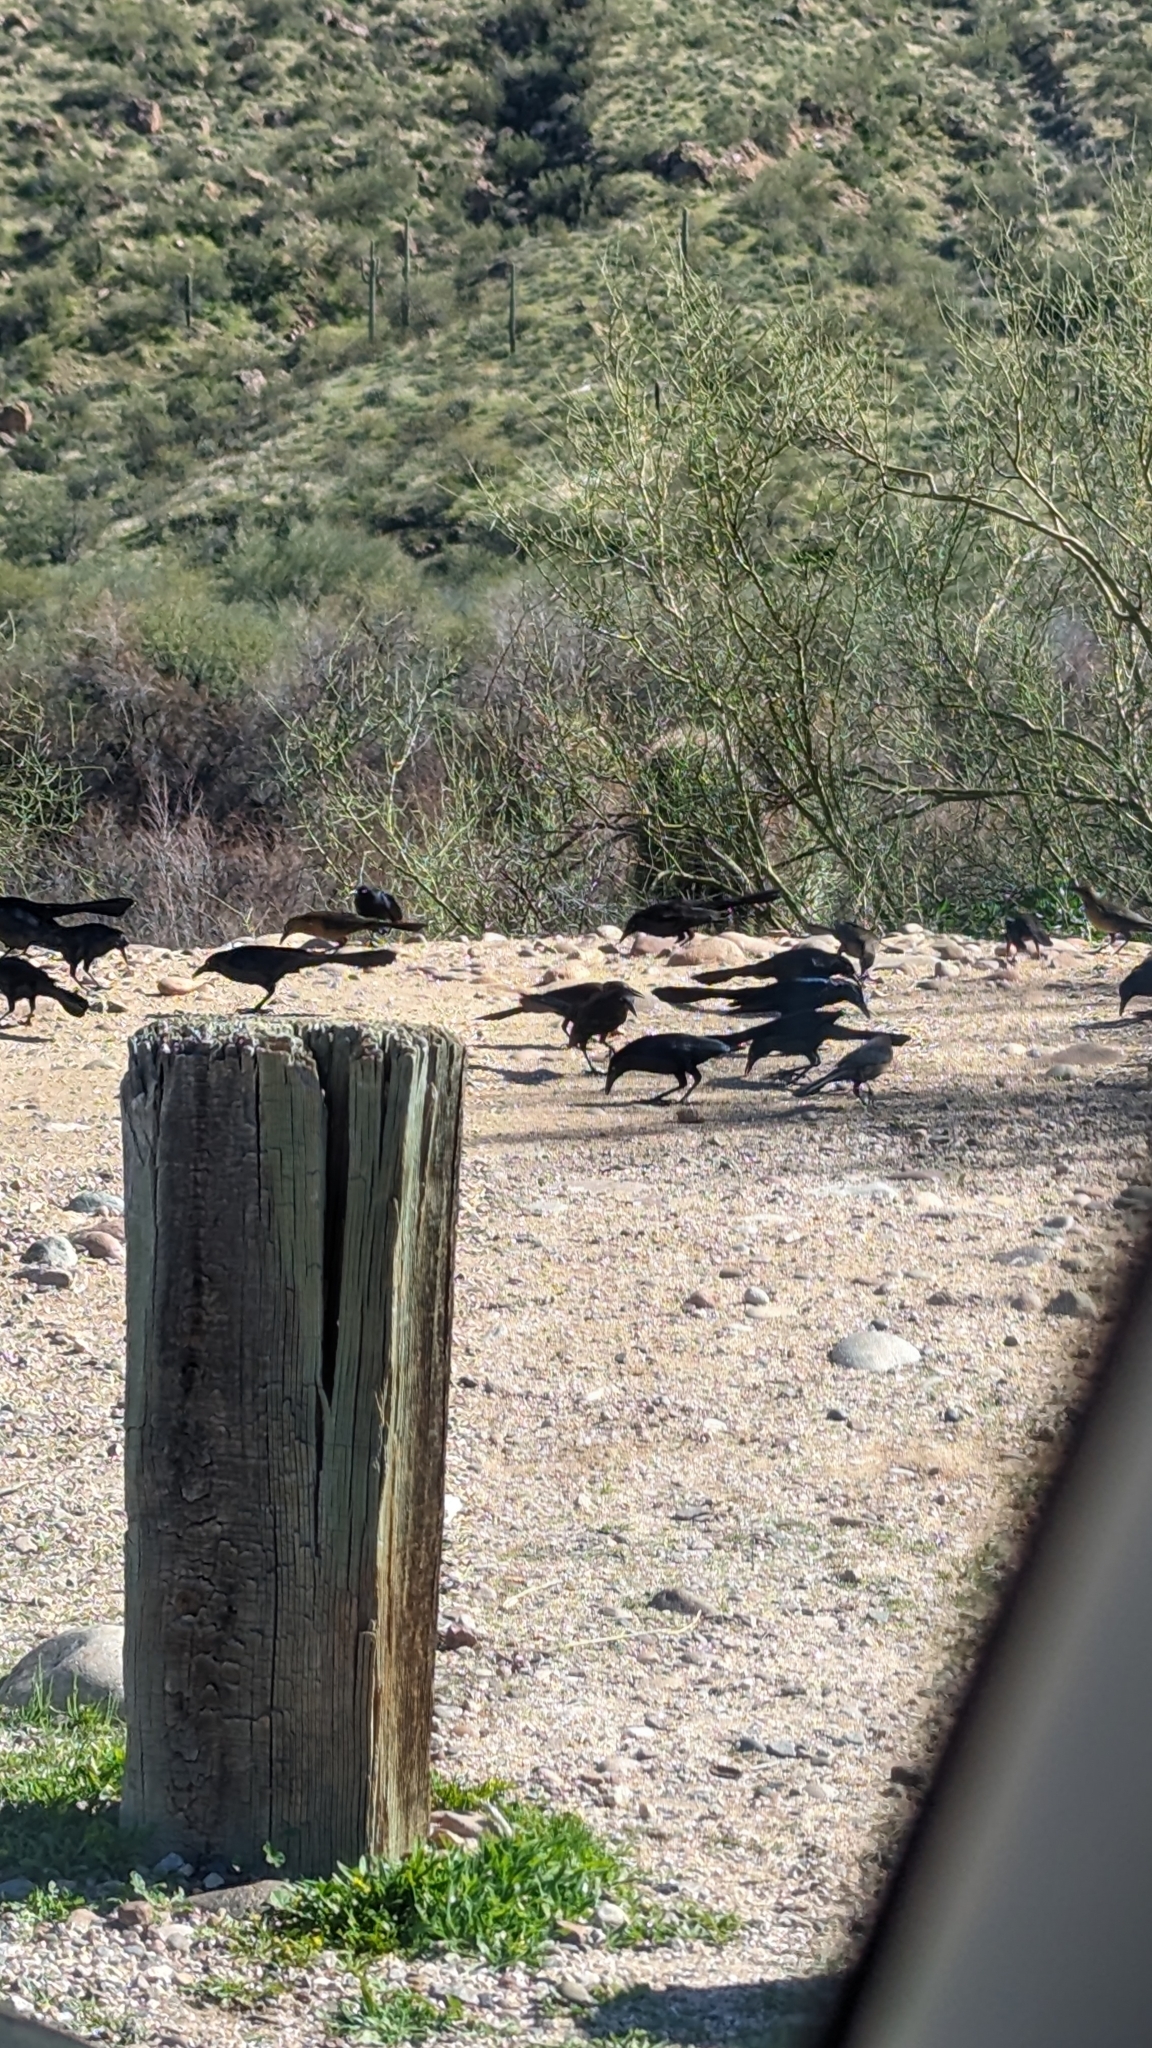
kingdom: Animalia
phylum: Chordata
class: Aves
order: Passeriformes
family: Icteridae
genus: Quiscalus
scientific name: Quiscalus mexicanus
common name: Great-tailed grackle
